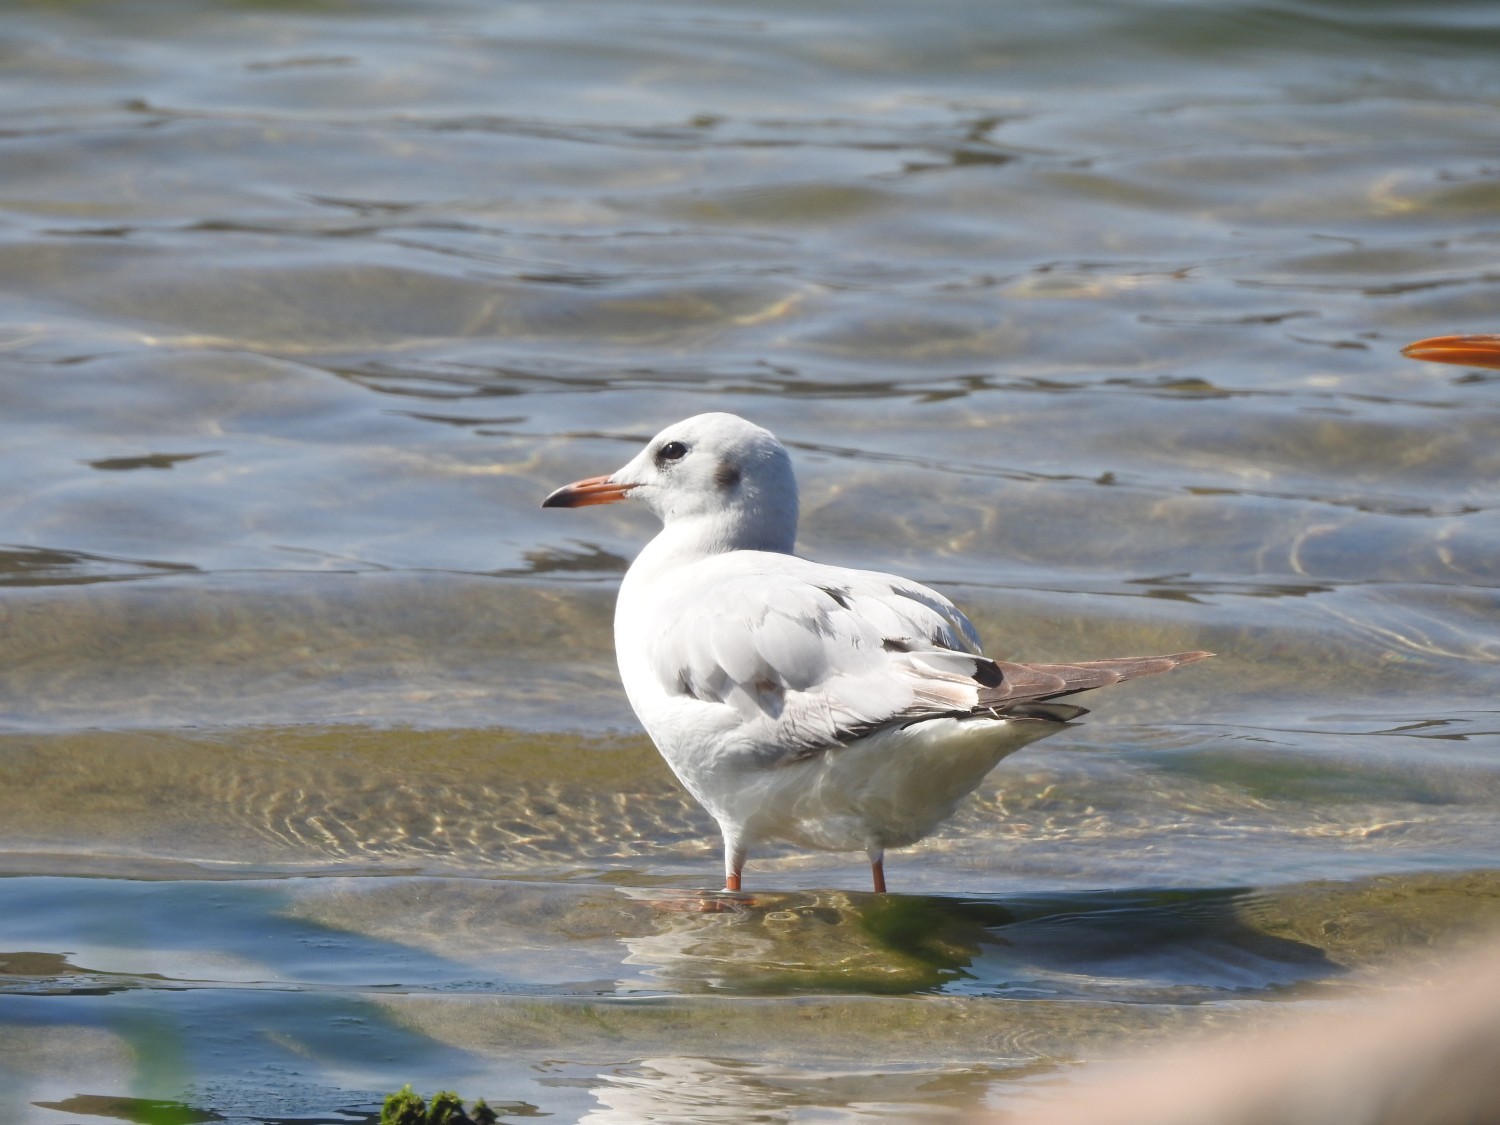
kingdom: Animalia
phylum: Chordata
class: Aves
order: Charadriiformes
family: Laridae
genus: Chroicocephalus
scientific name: Chroicocephalus ridibundus
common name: Black-headed gull
